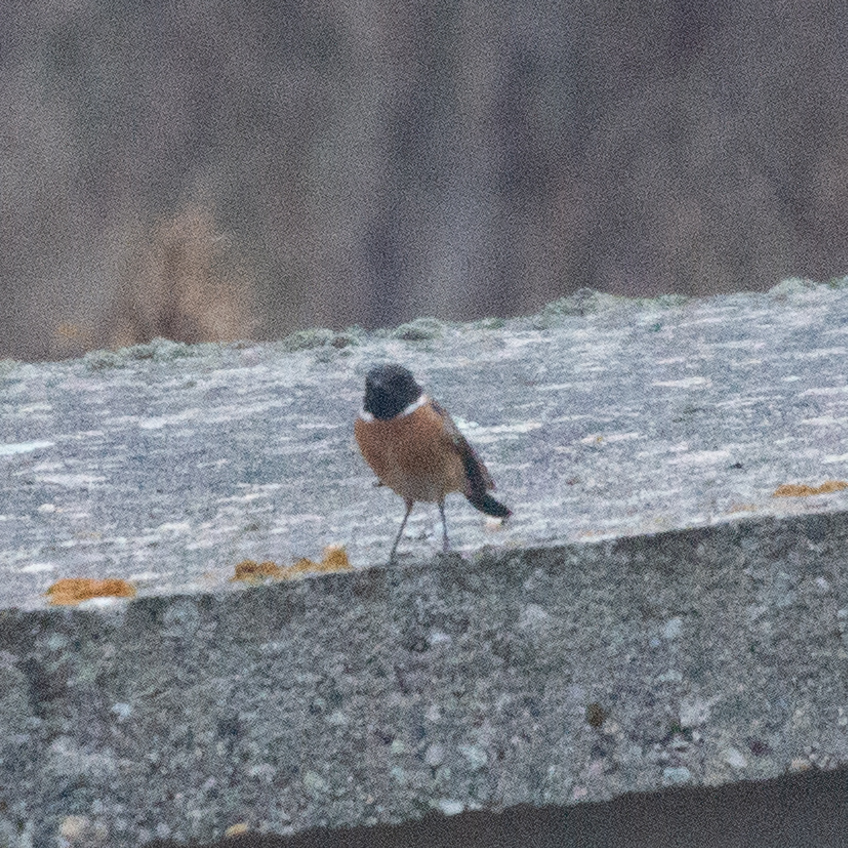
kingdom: Animalia
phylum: Chordata
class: Aves
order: Passeriformes
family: Muscicapidae
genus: Saxicola
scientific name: Saxicola rubicola
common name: European stonechat
